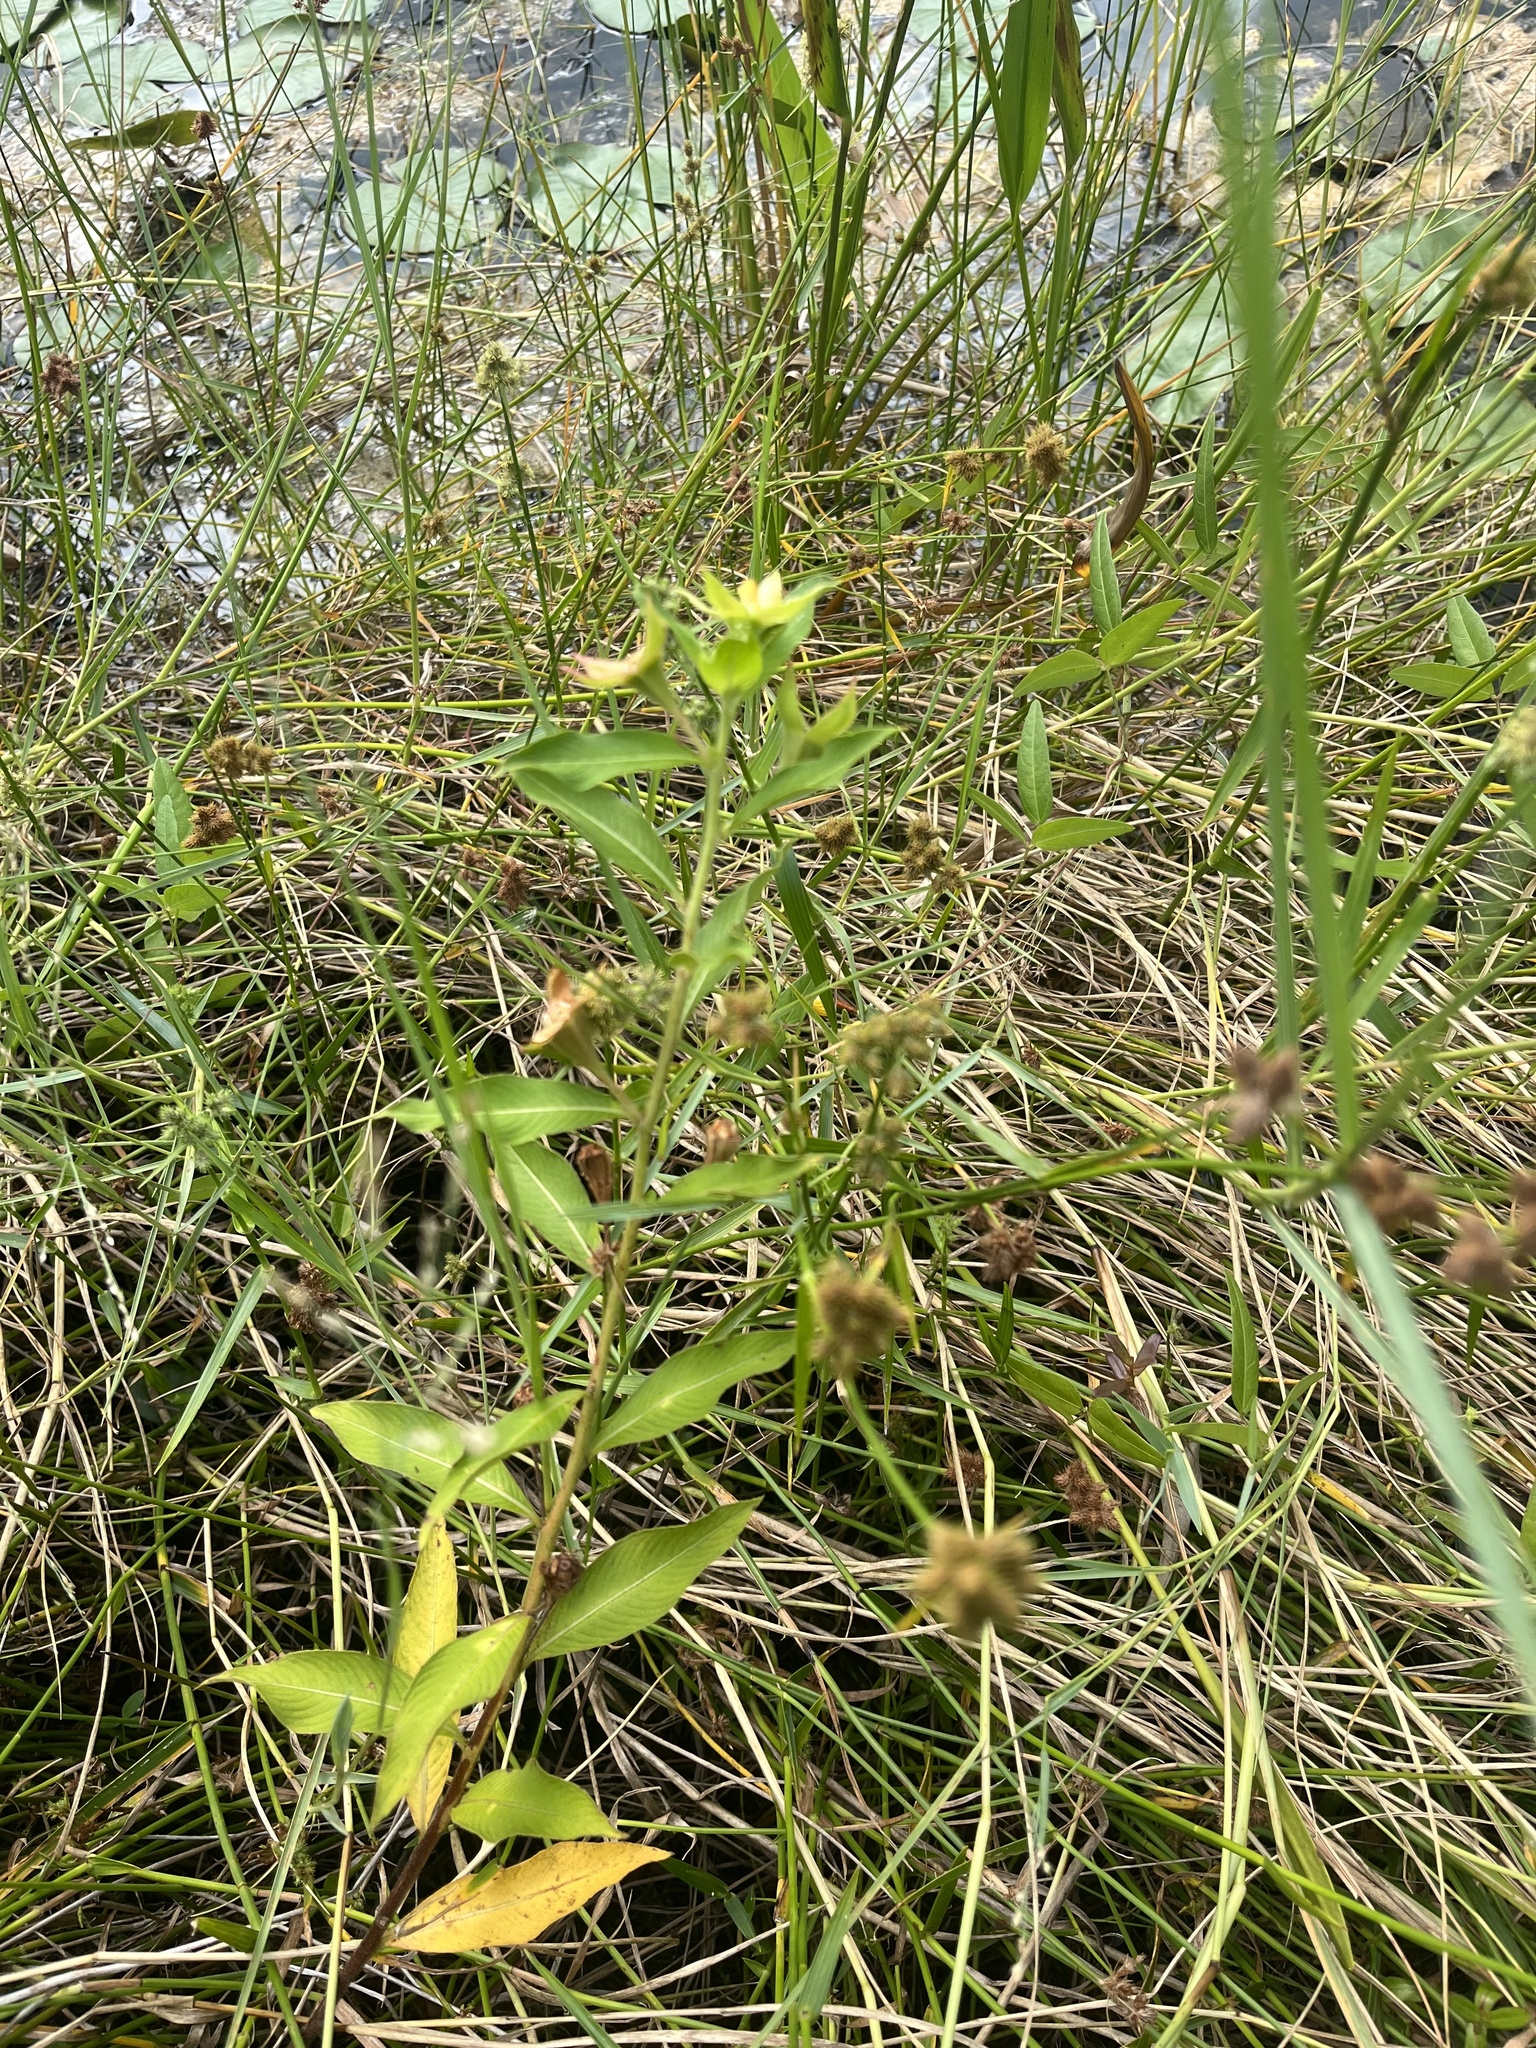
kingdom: Plantae
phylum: Tracheophyta
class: Magnoliopsida
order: Myrtales
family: Onagraceae
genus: Ludwigia
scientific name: Ludwigia peruviana
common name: Peruvian primrose-willow
